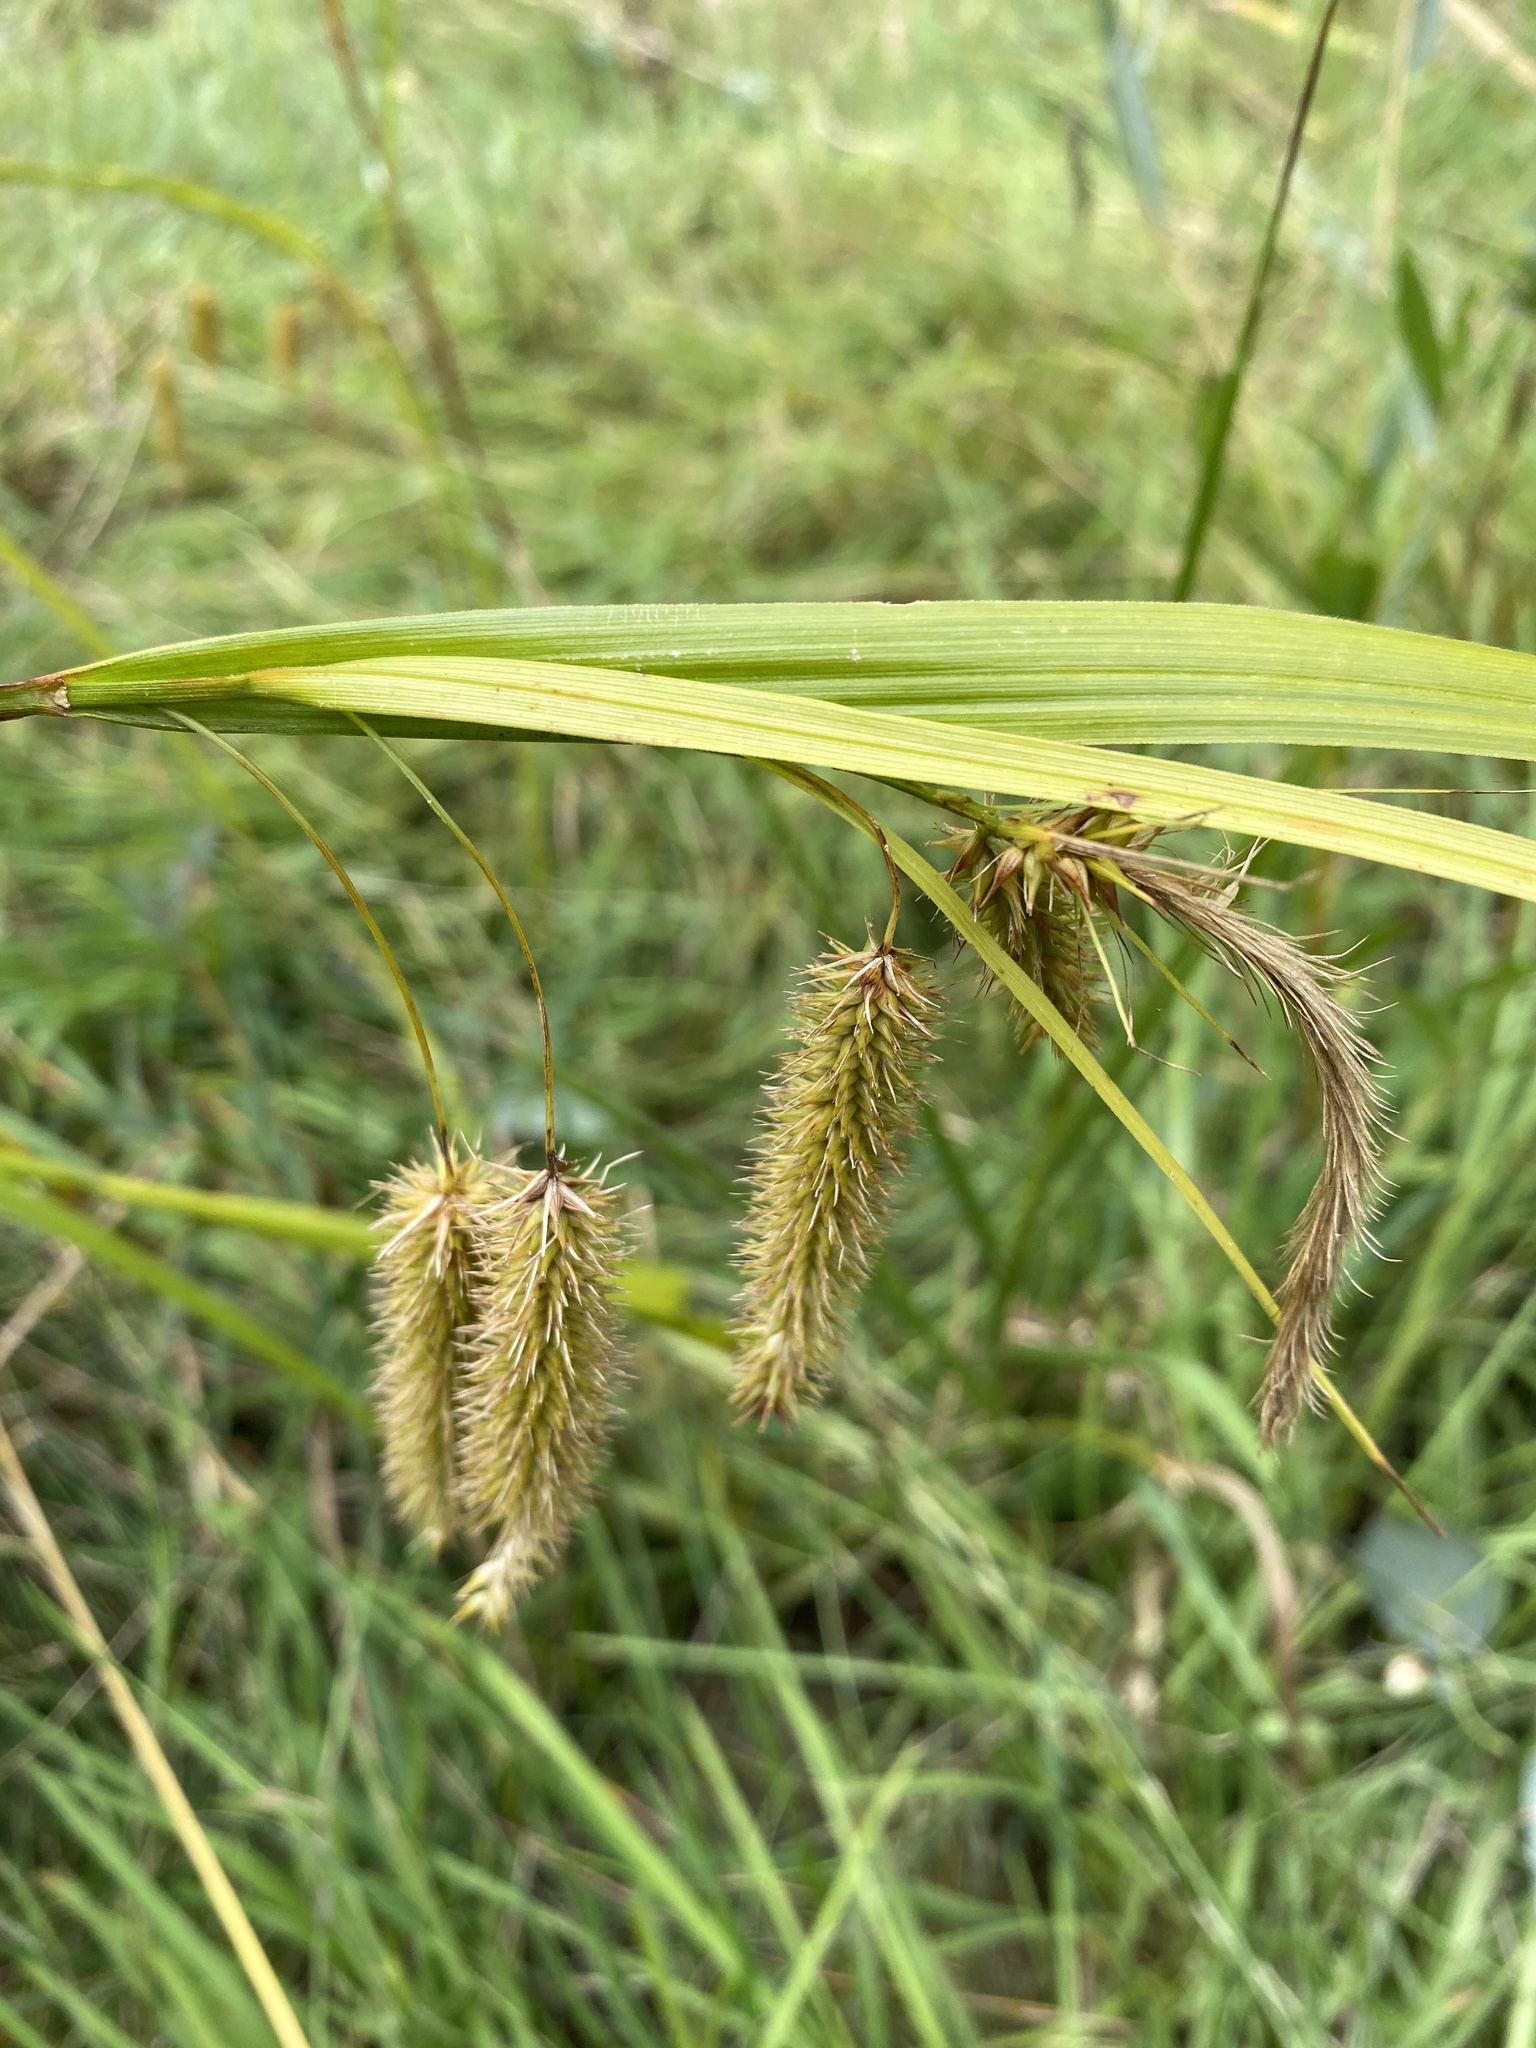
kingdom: Plantae
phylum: Tracheophyta
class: Liliopsida
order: Poales
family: Cyperaceae
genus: Carex
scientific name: Carex pseudocyperus
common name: Cyperus sedge
